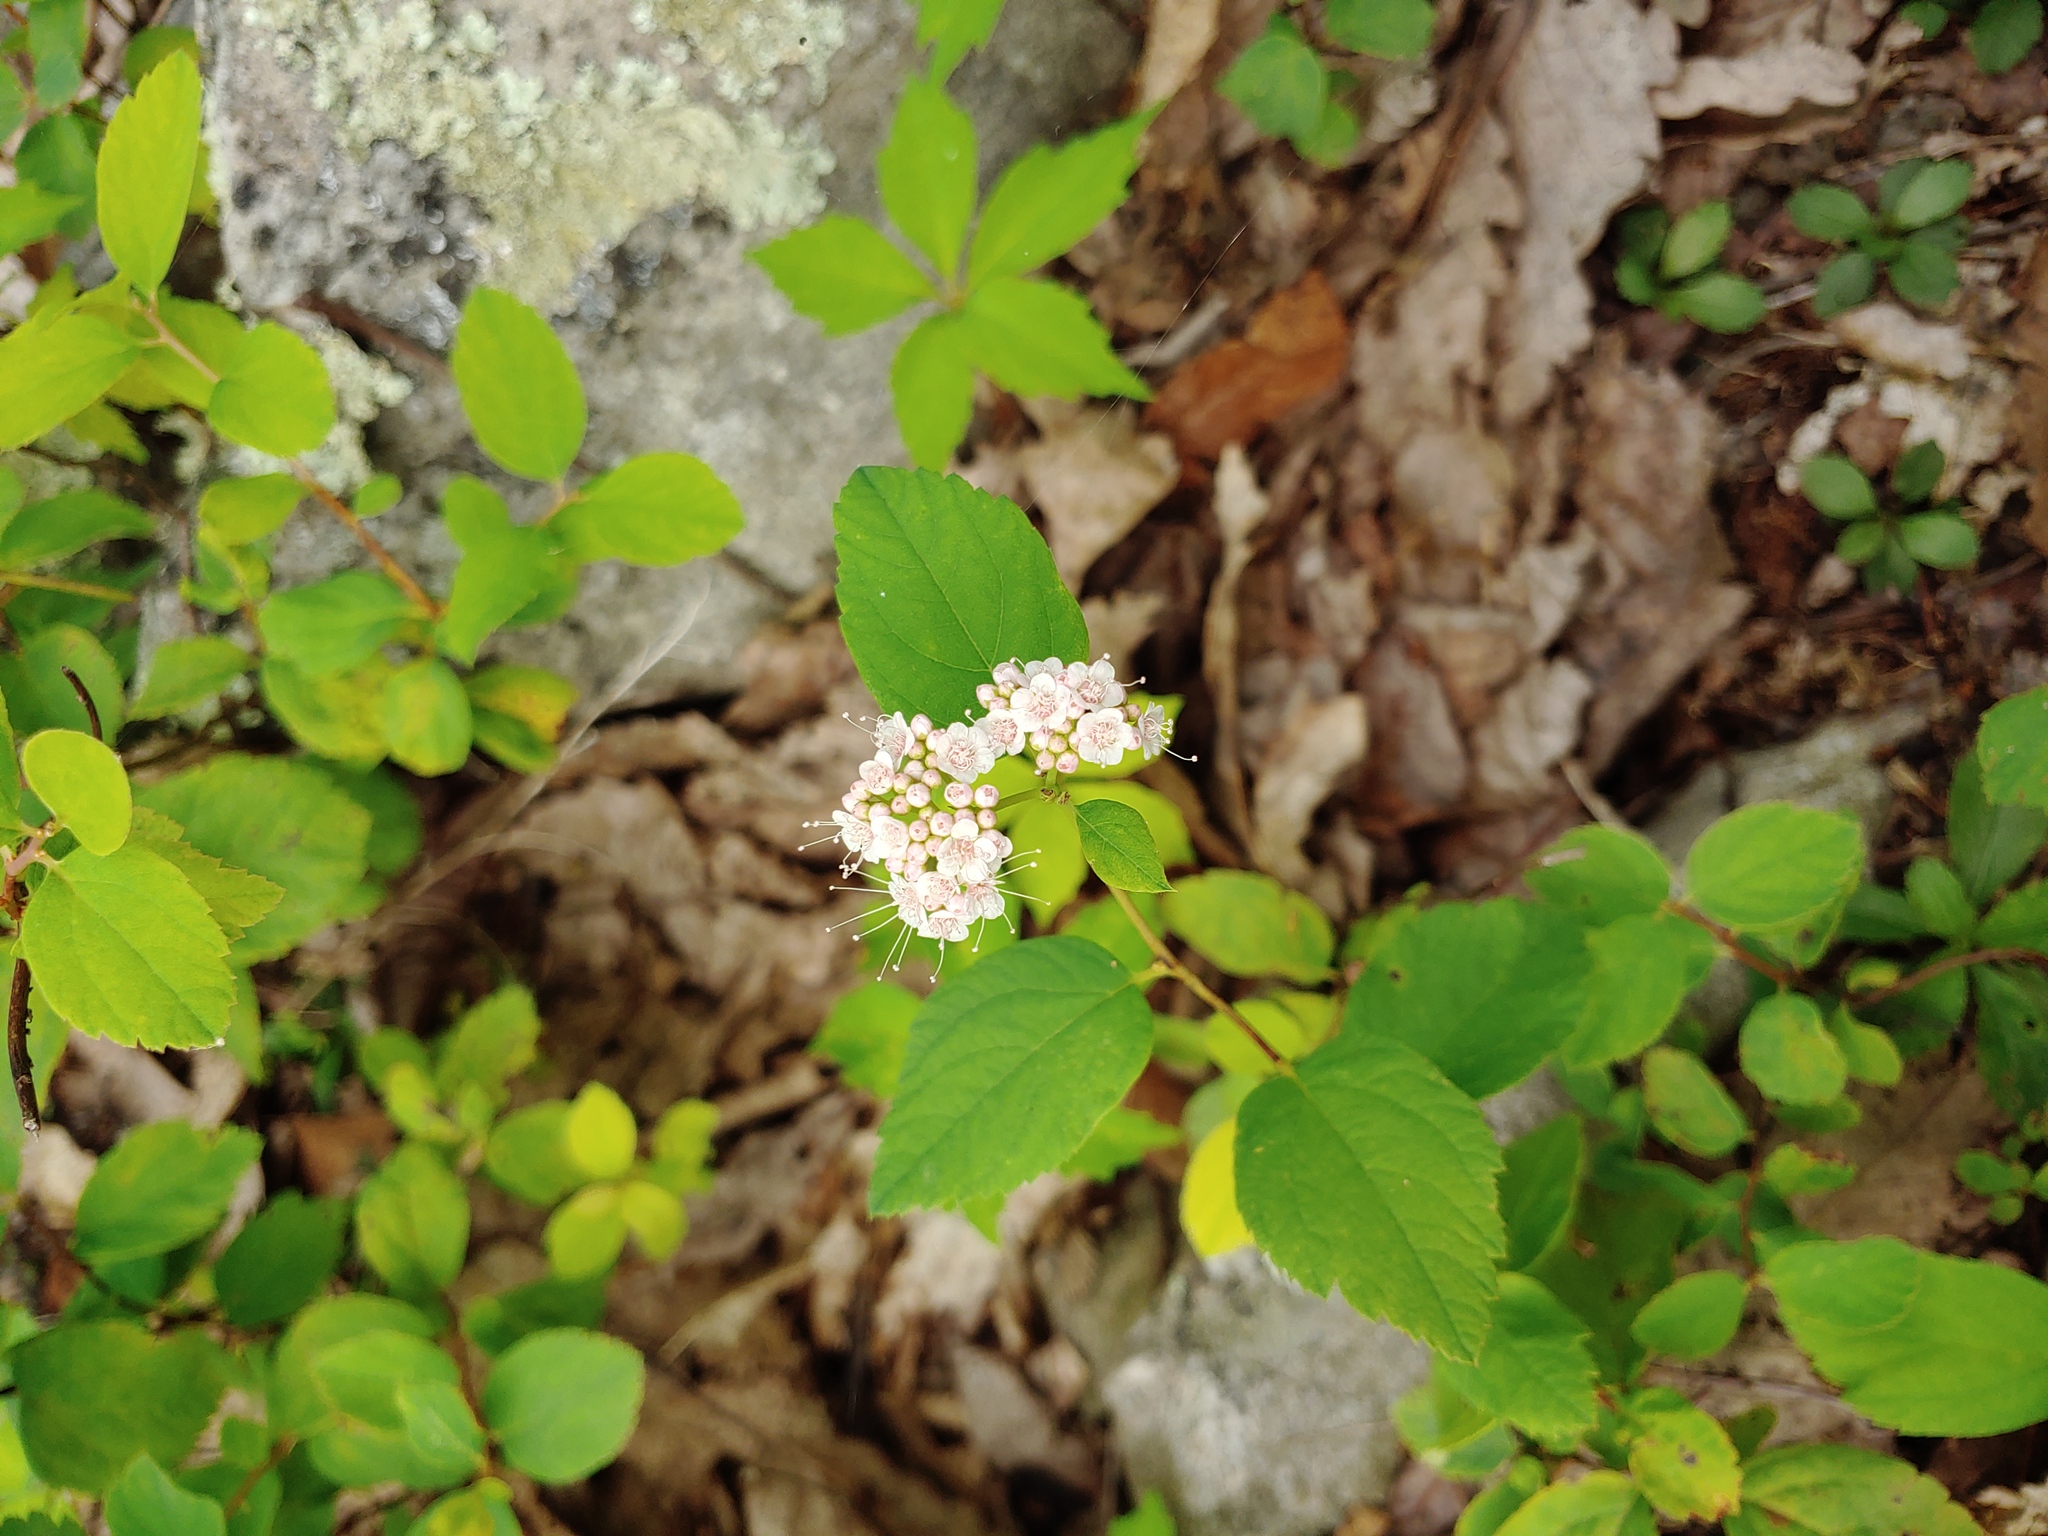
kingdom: Plantae
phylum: Tracheophyta
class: Magnoliopsida
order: Rosales
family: Rosaceae
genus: Spiraea
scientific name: Spiraea corymbosa
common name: Corymbed meadowsweet
